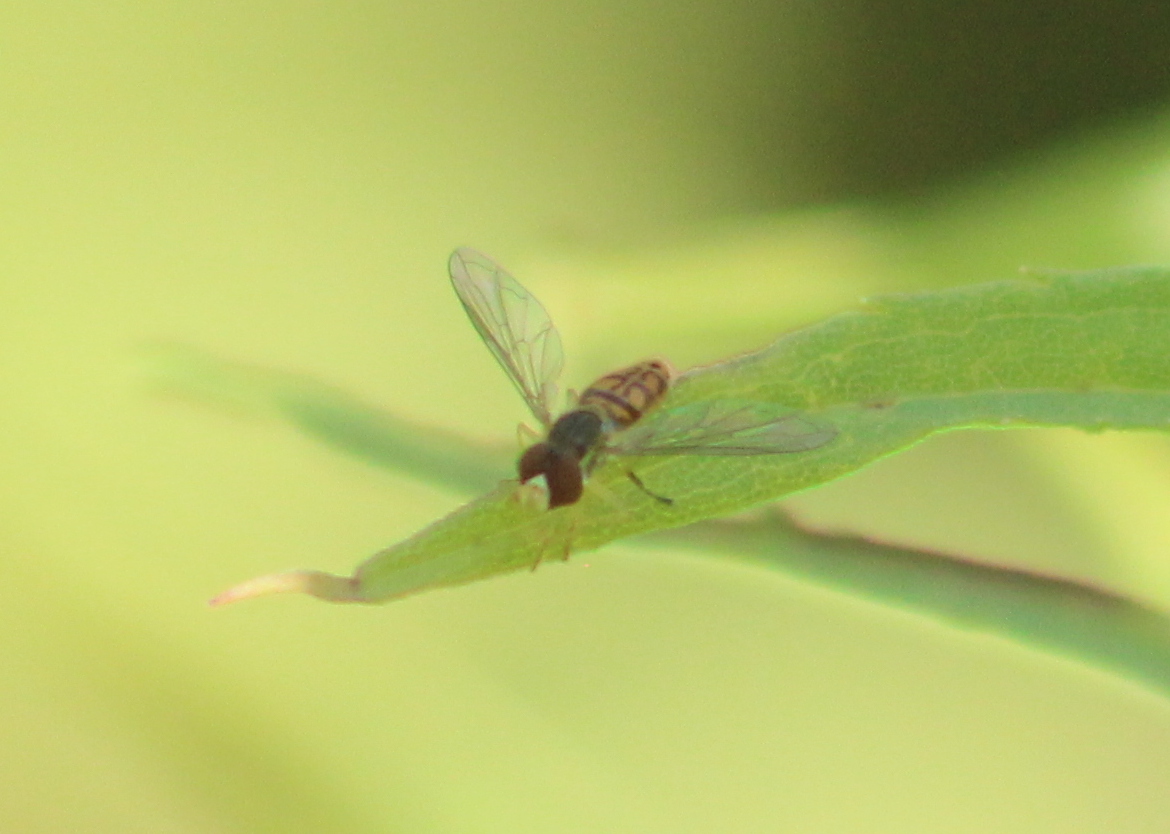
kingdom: Animalia
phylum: Arthropoda
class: Insecta
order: Diptera
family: Syrphidae
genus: Toxomerus
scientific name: Toxomerus marginatus
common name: Syrphid fly
